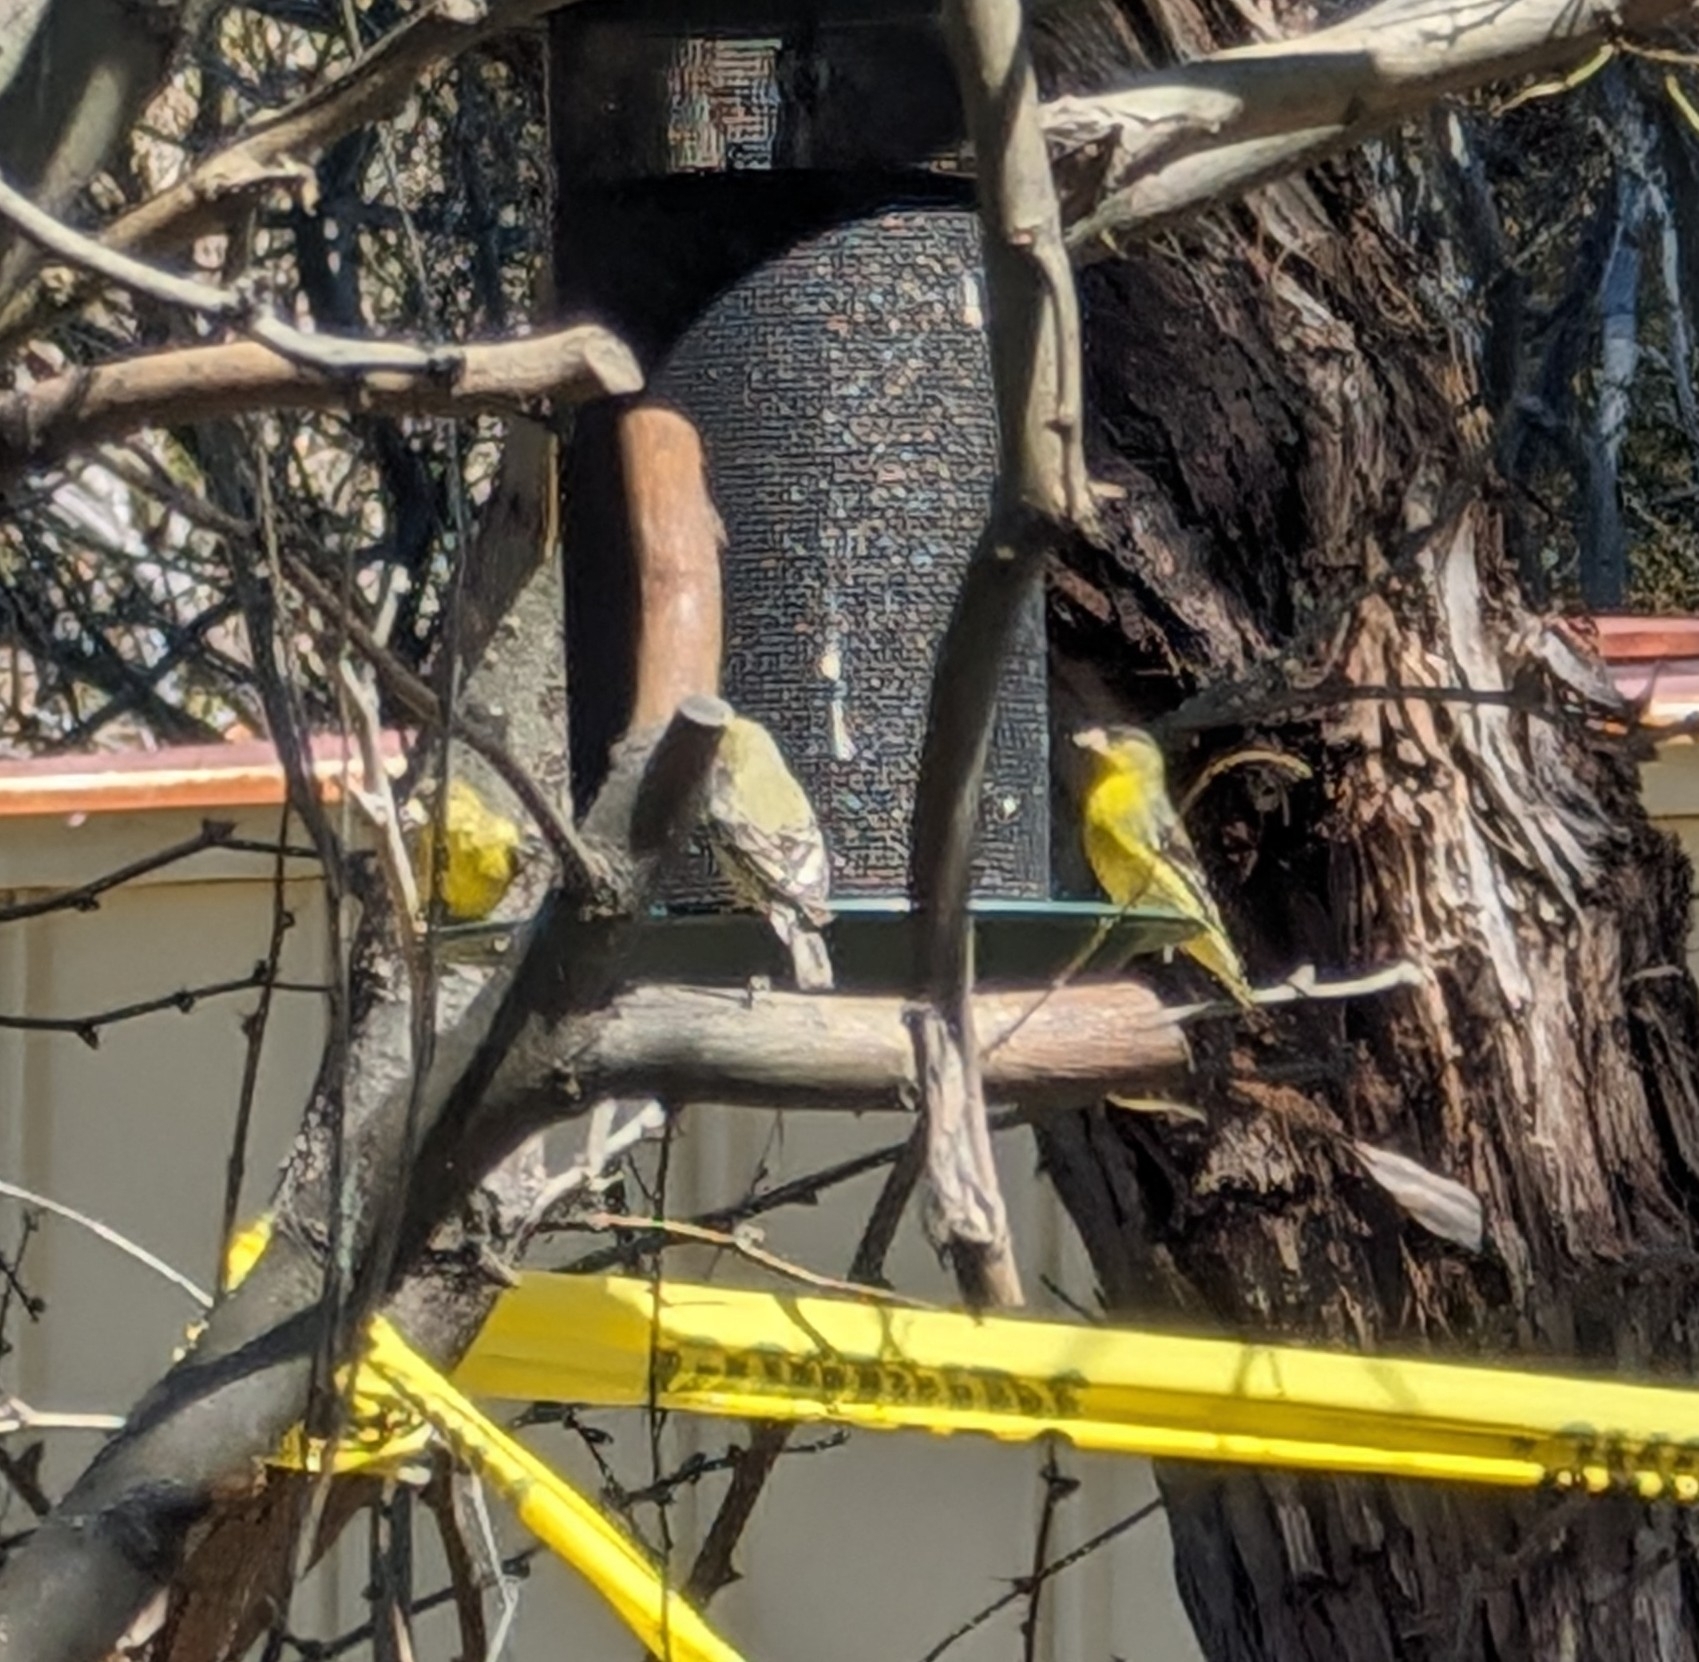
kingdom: Animalia
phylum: Chordata
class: Aves
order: Passeriformes
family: Fringillidae
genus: Spinus
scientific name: Spinus psaltria
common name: Lesser goldfinch
